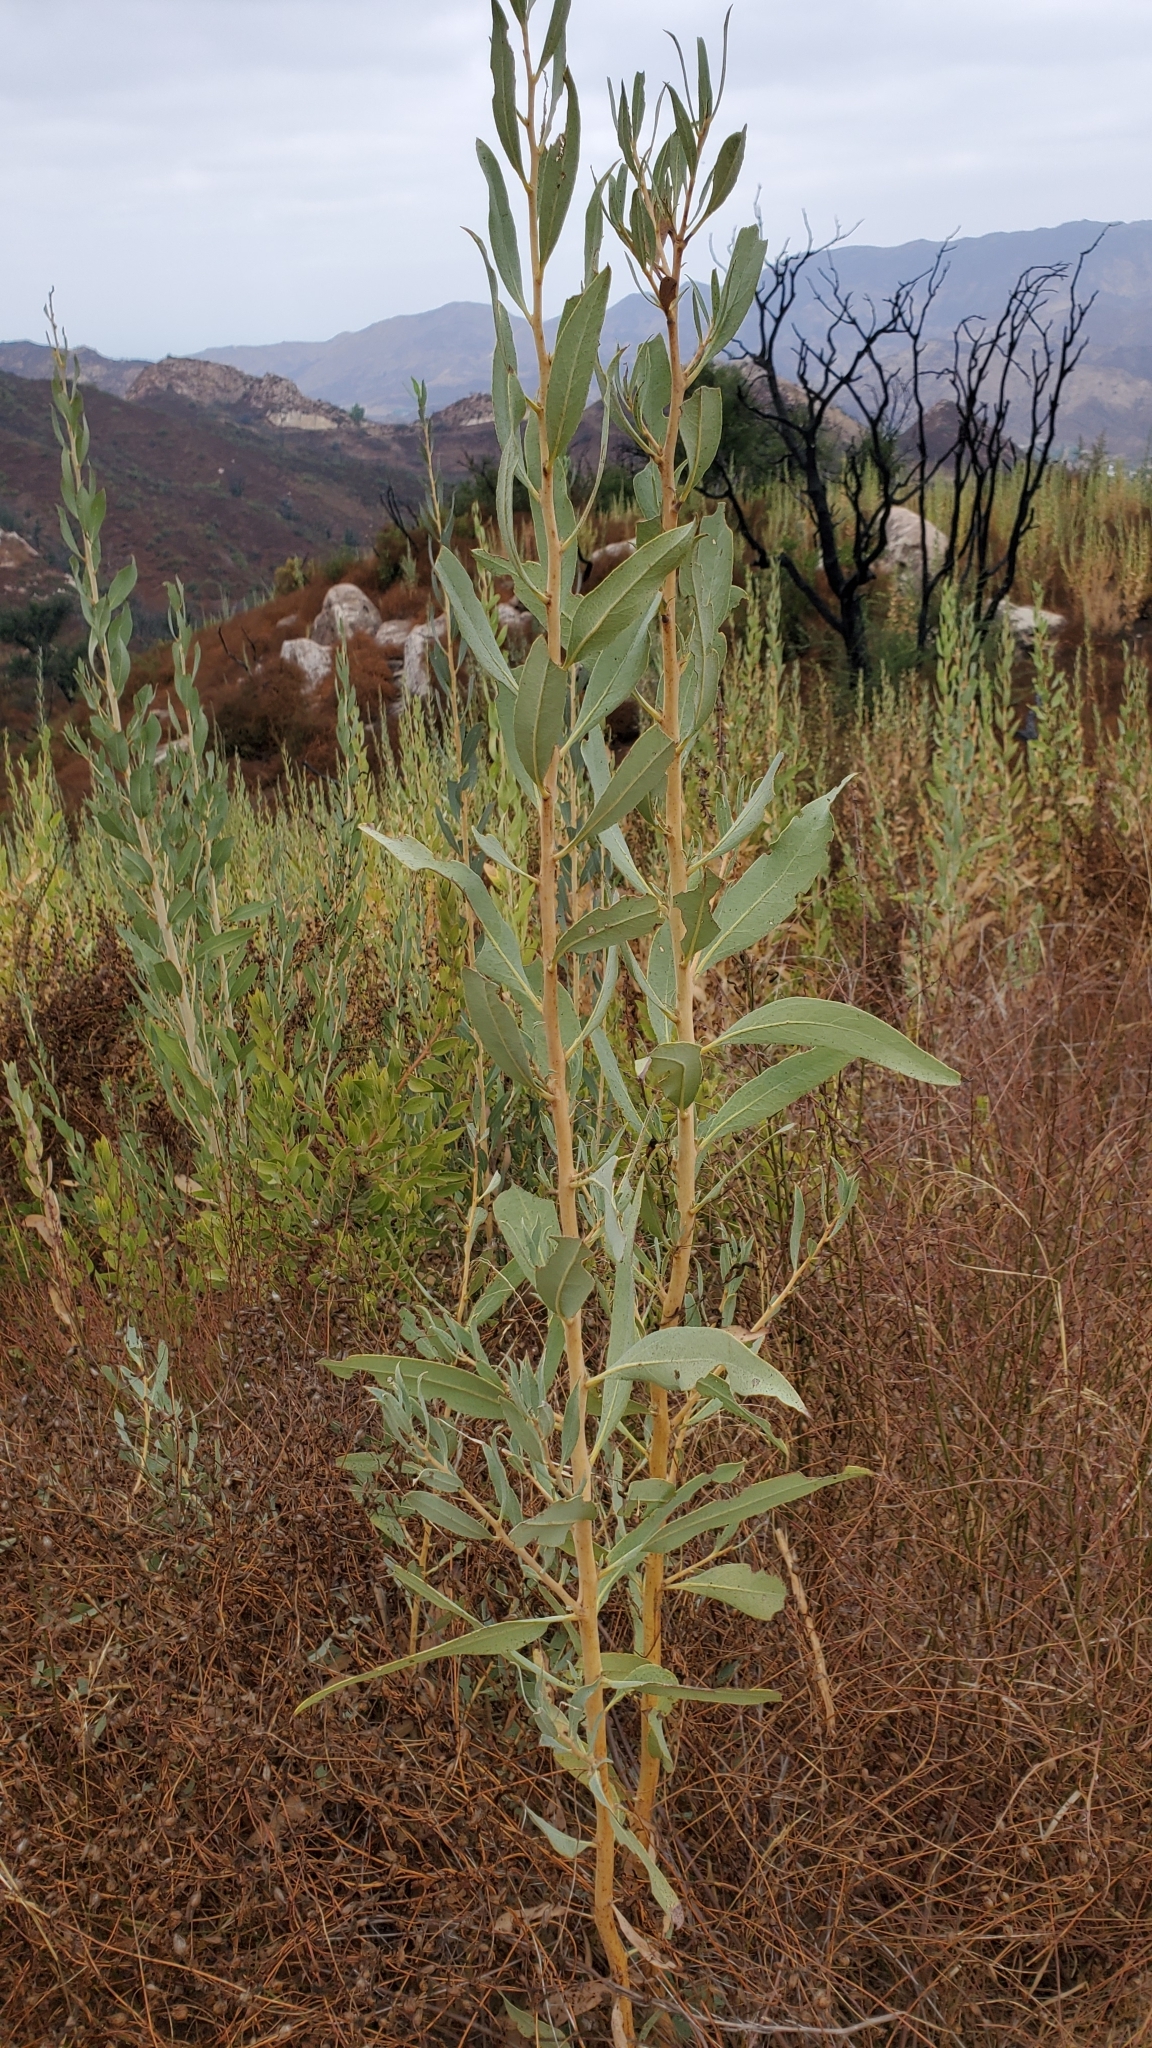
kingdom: Plantae
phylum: Tracheophyta
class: Magnoliopsida
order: Ranunculales
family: Papaveraceae
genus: Dendromecon
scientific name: Dendromecon rigida
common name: Tree poppy
